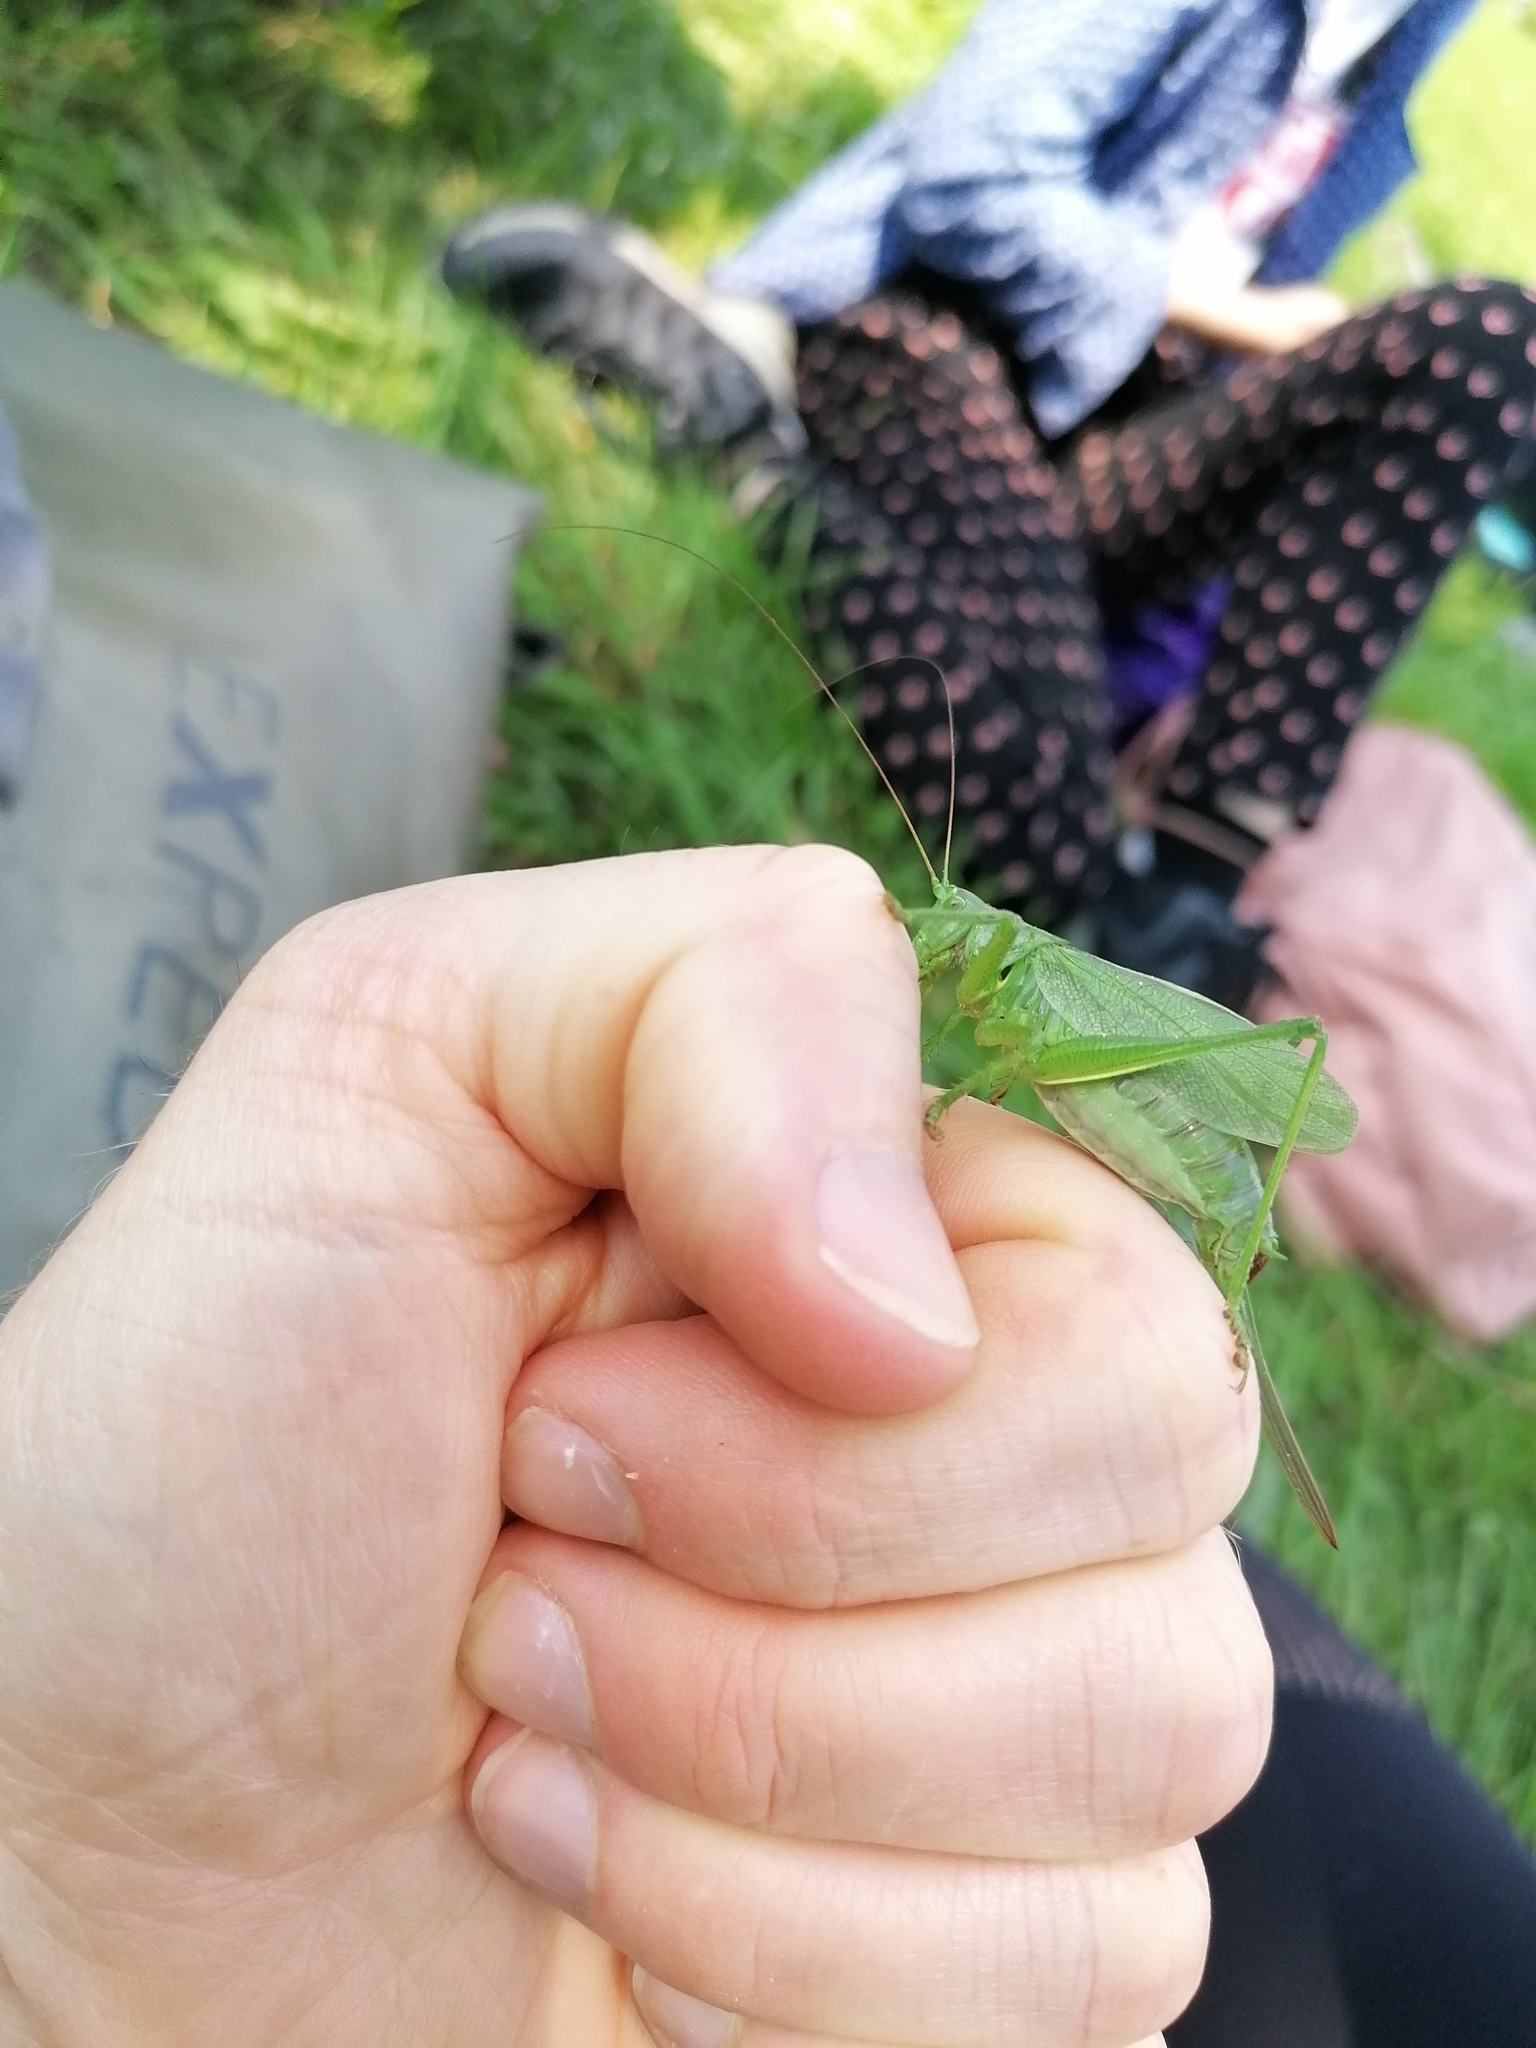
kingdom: Animalia
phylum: Arthropoda
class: Insecta
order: Orthoptera
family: Tettigoniidae
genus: Tettigonia
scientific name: Tettigonia cantans
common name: Upland green bush-cricket
